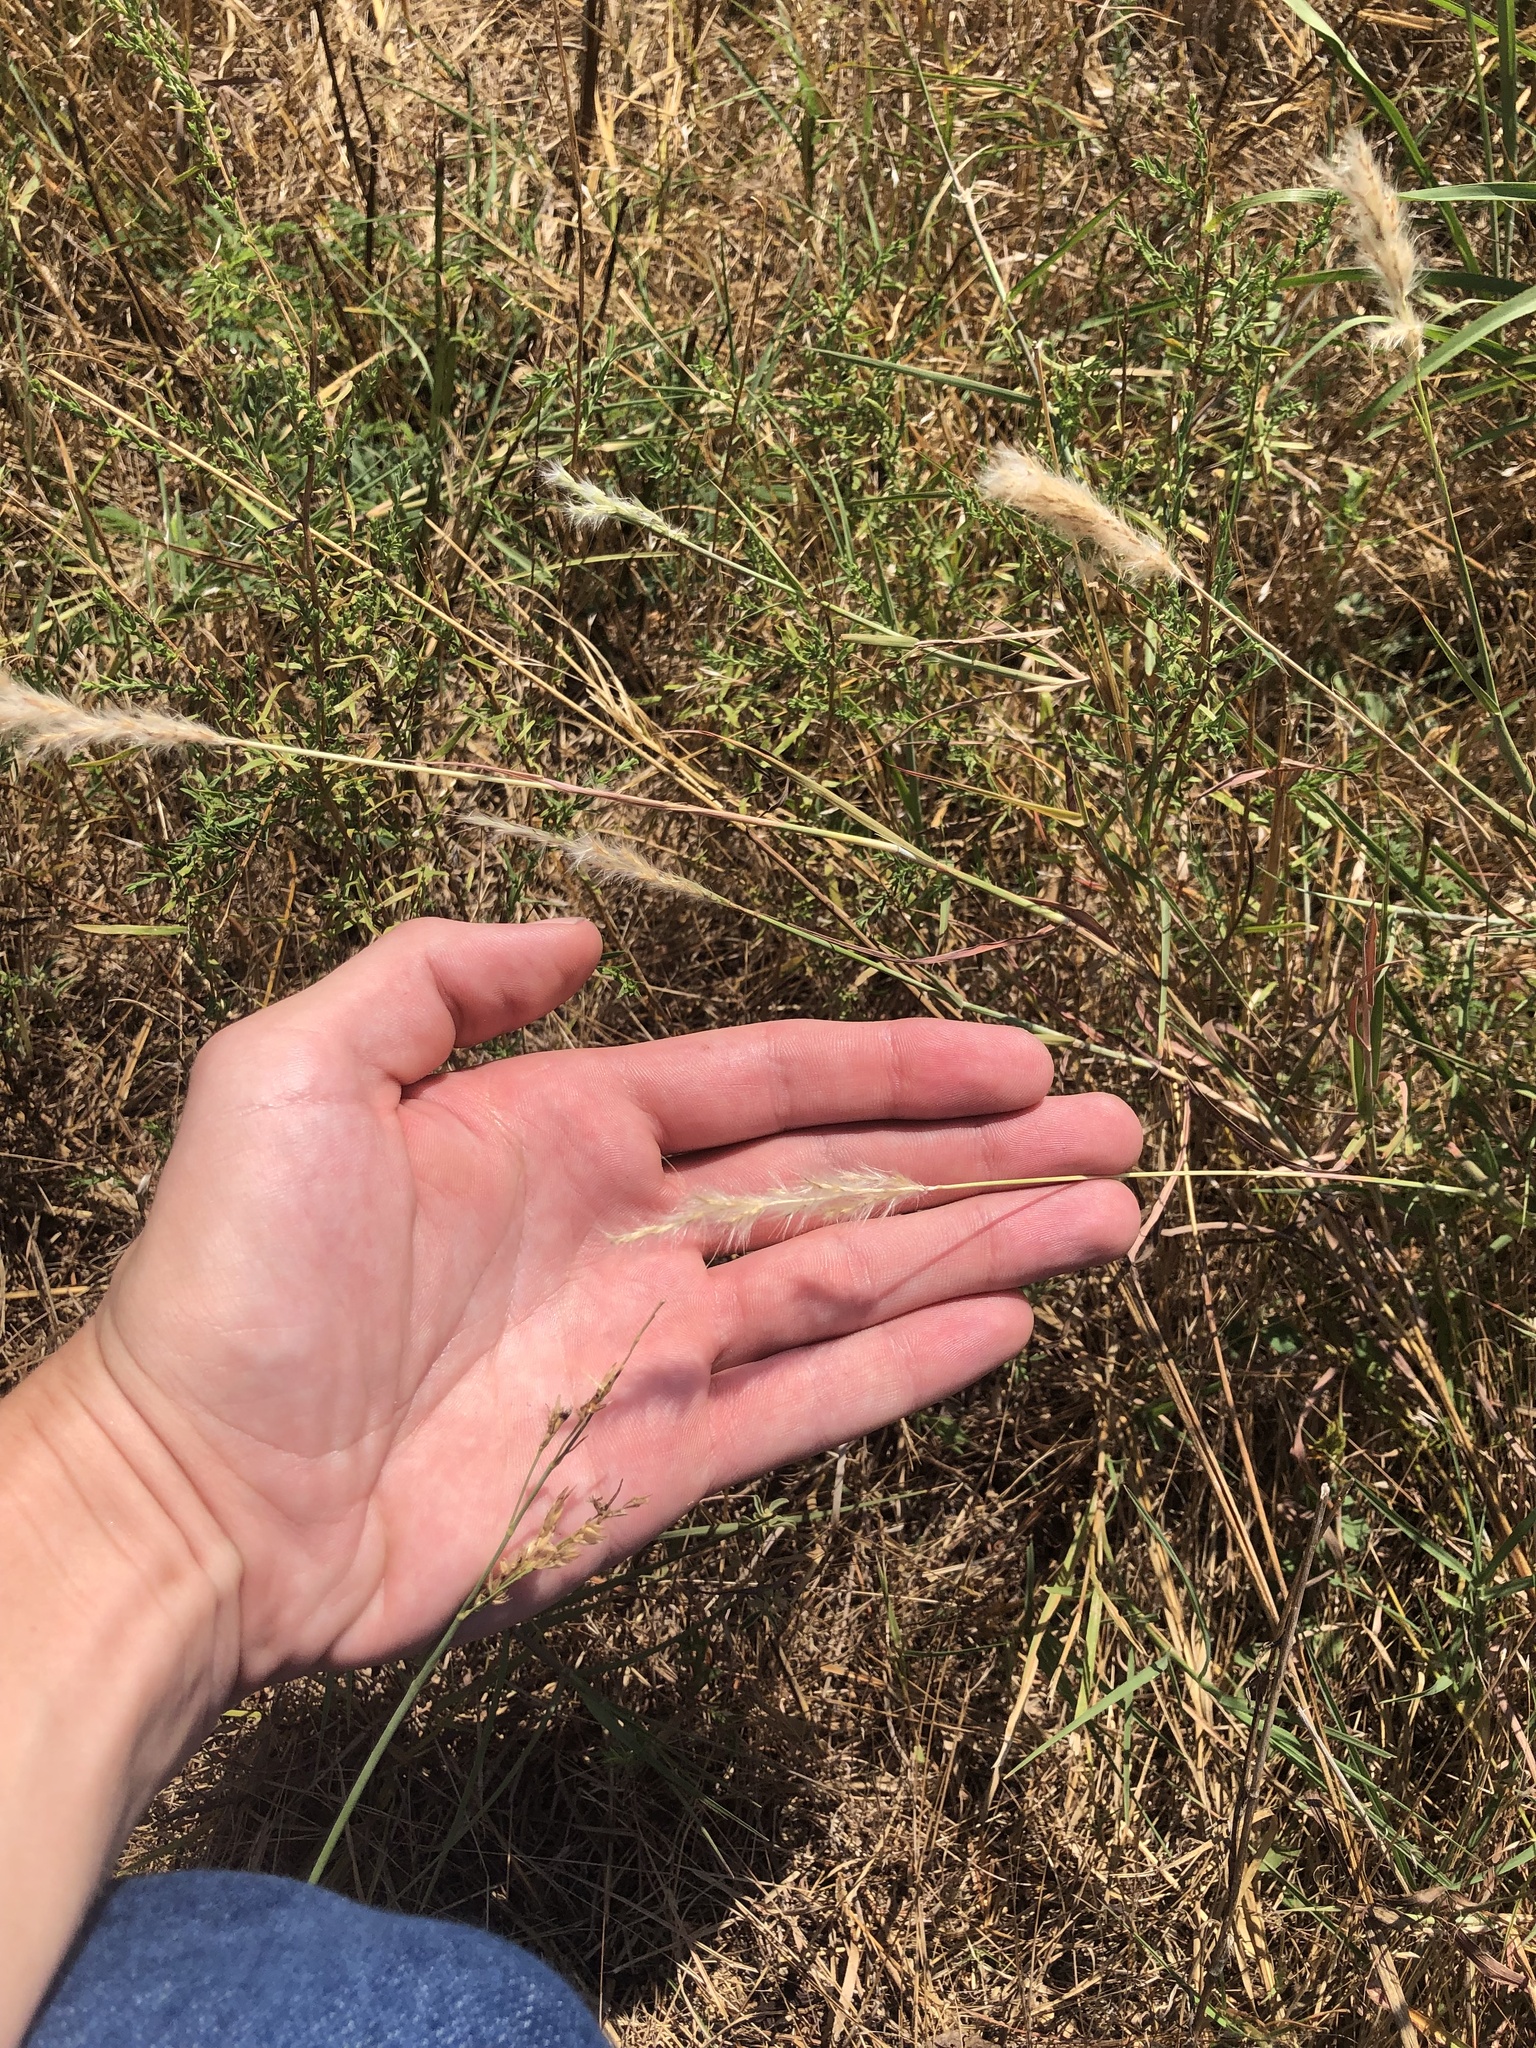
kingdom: Plantae
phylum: Tracheophyta
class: Liliopsida
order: Poales
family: Poaceae
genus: Bothriochloa
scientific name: Bothriochloa torreyana
